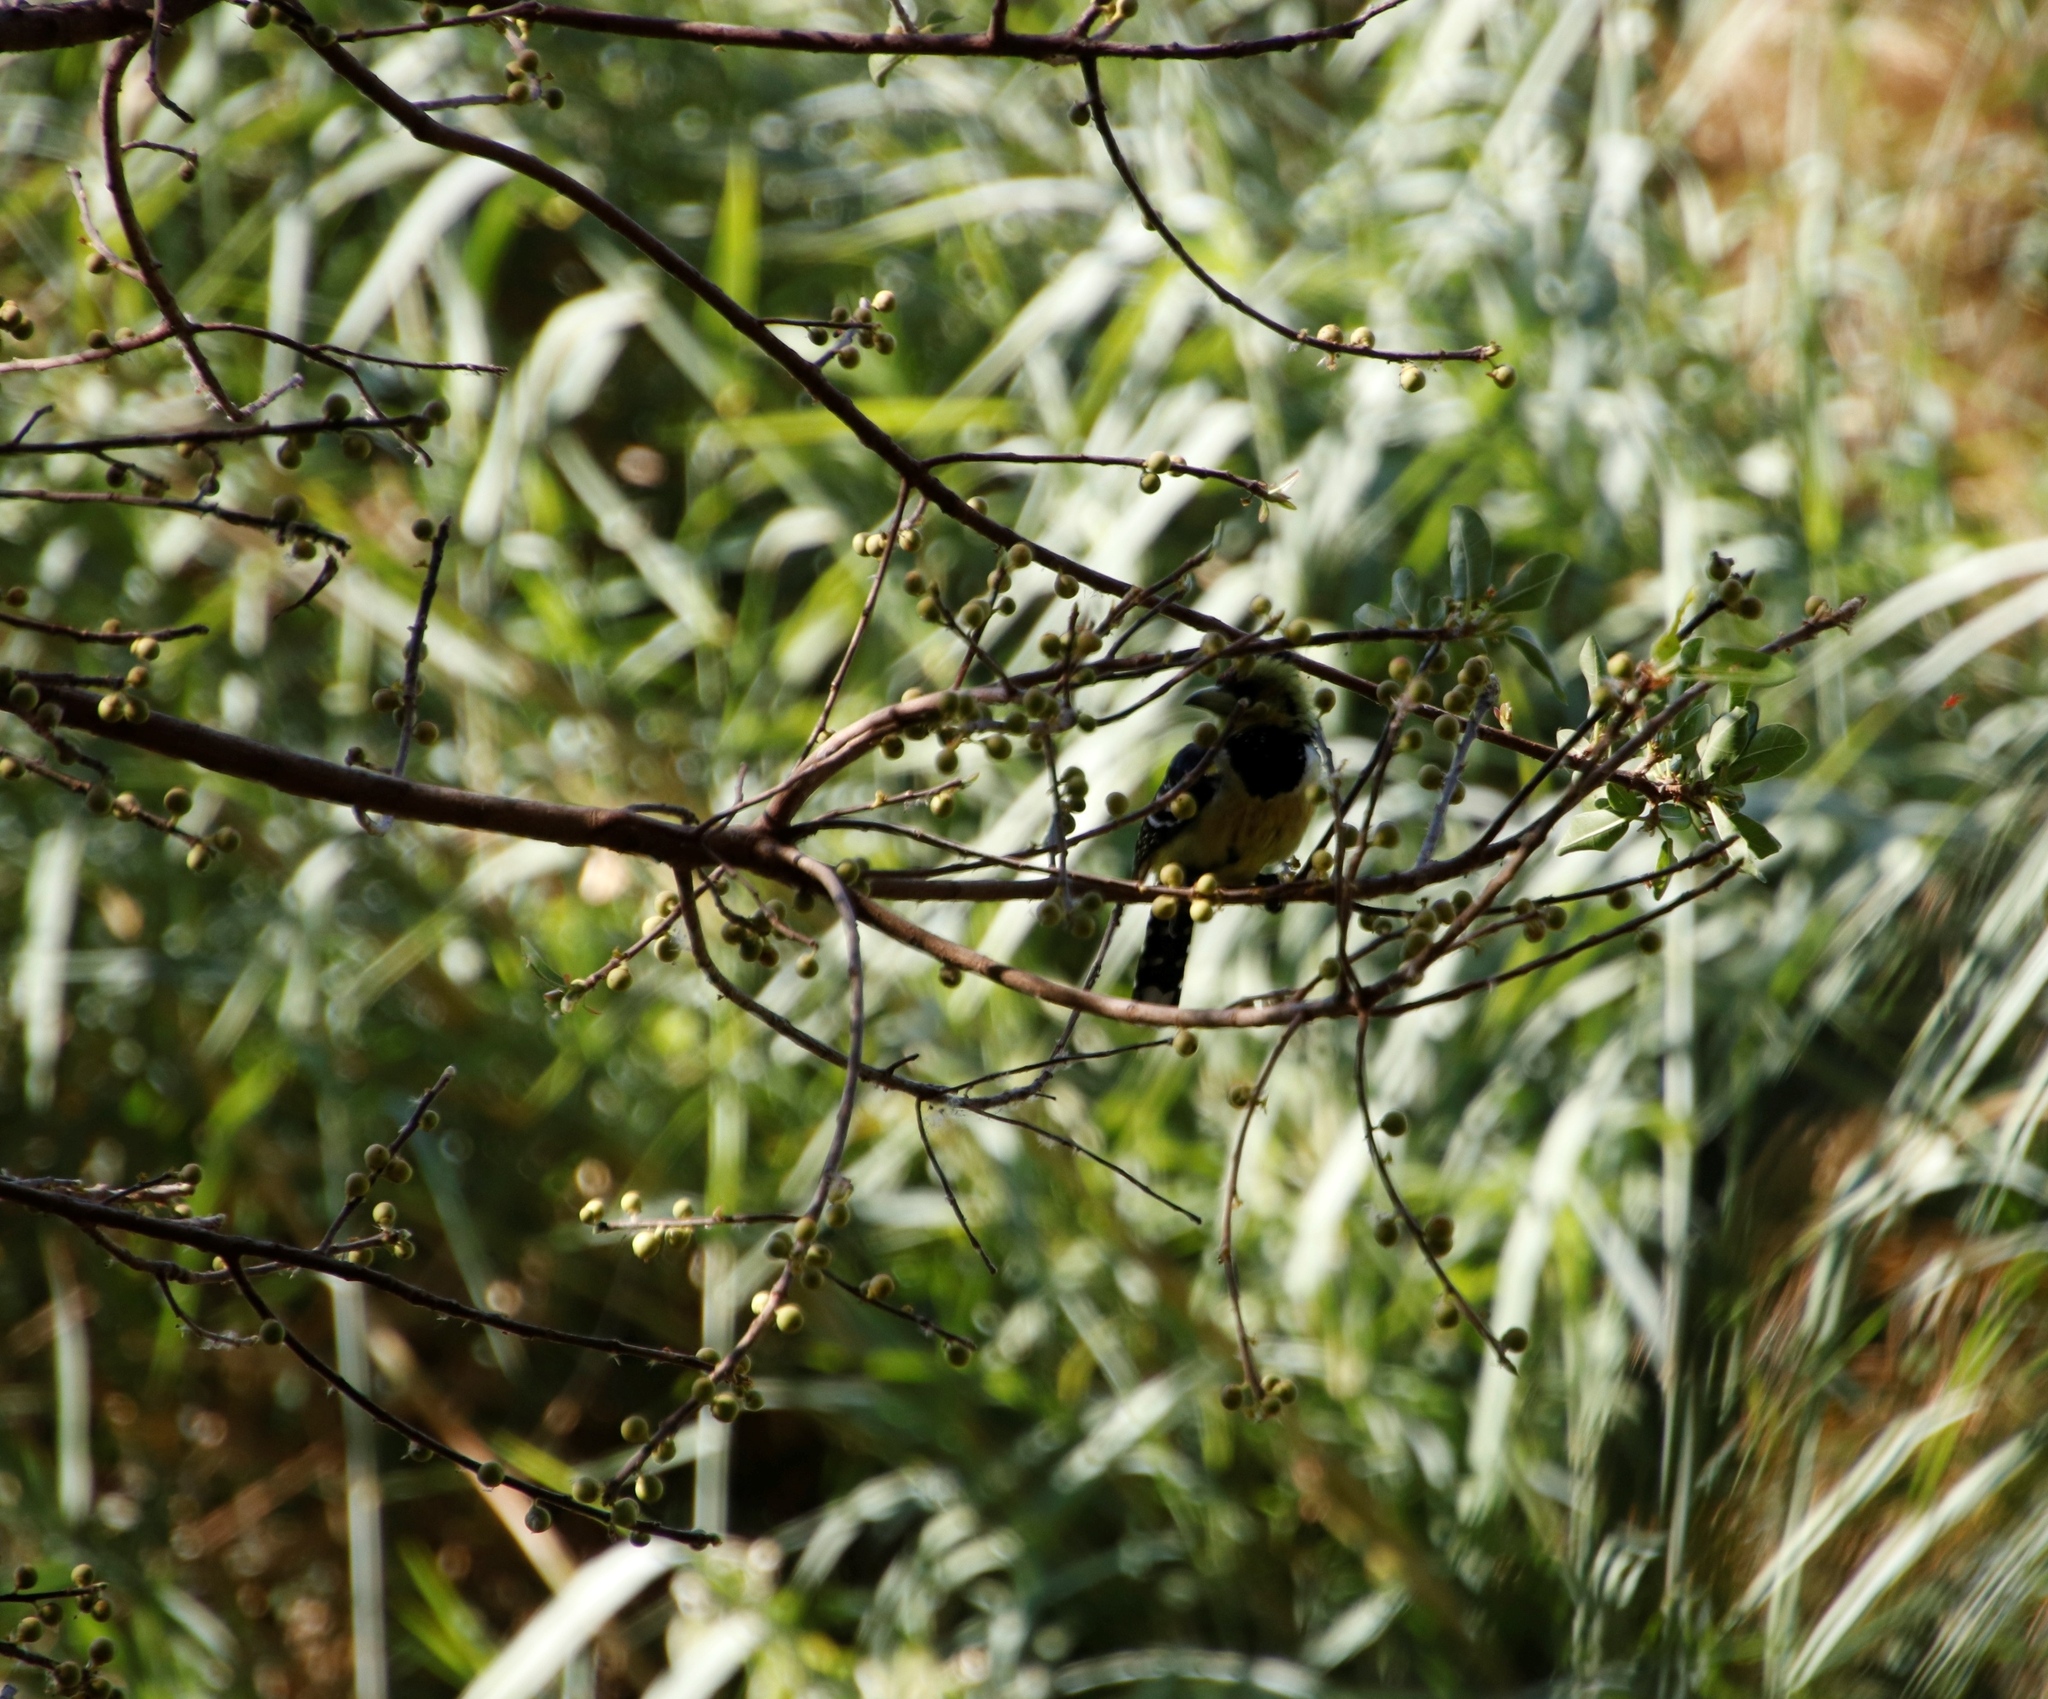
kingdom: Plantae
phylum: Tracheophyta
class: Magnoliopsida
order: Rosales
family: Moraceae
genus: Ficus
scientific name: Ficus thonningii
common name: Fig
